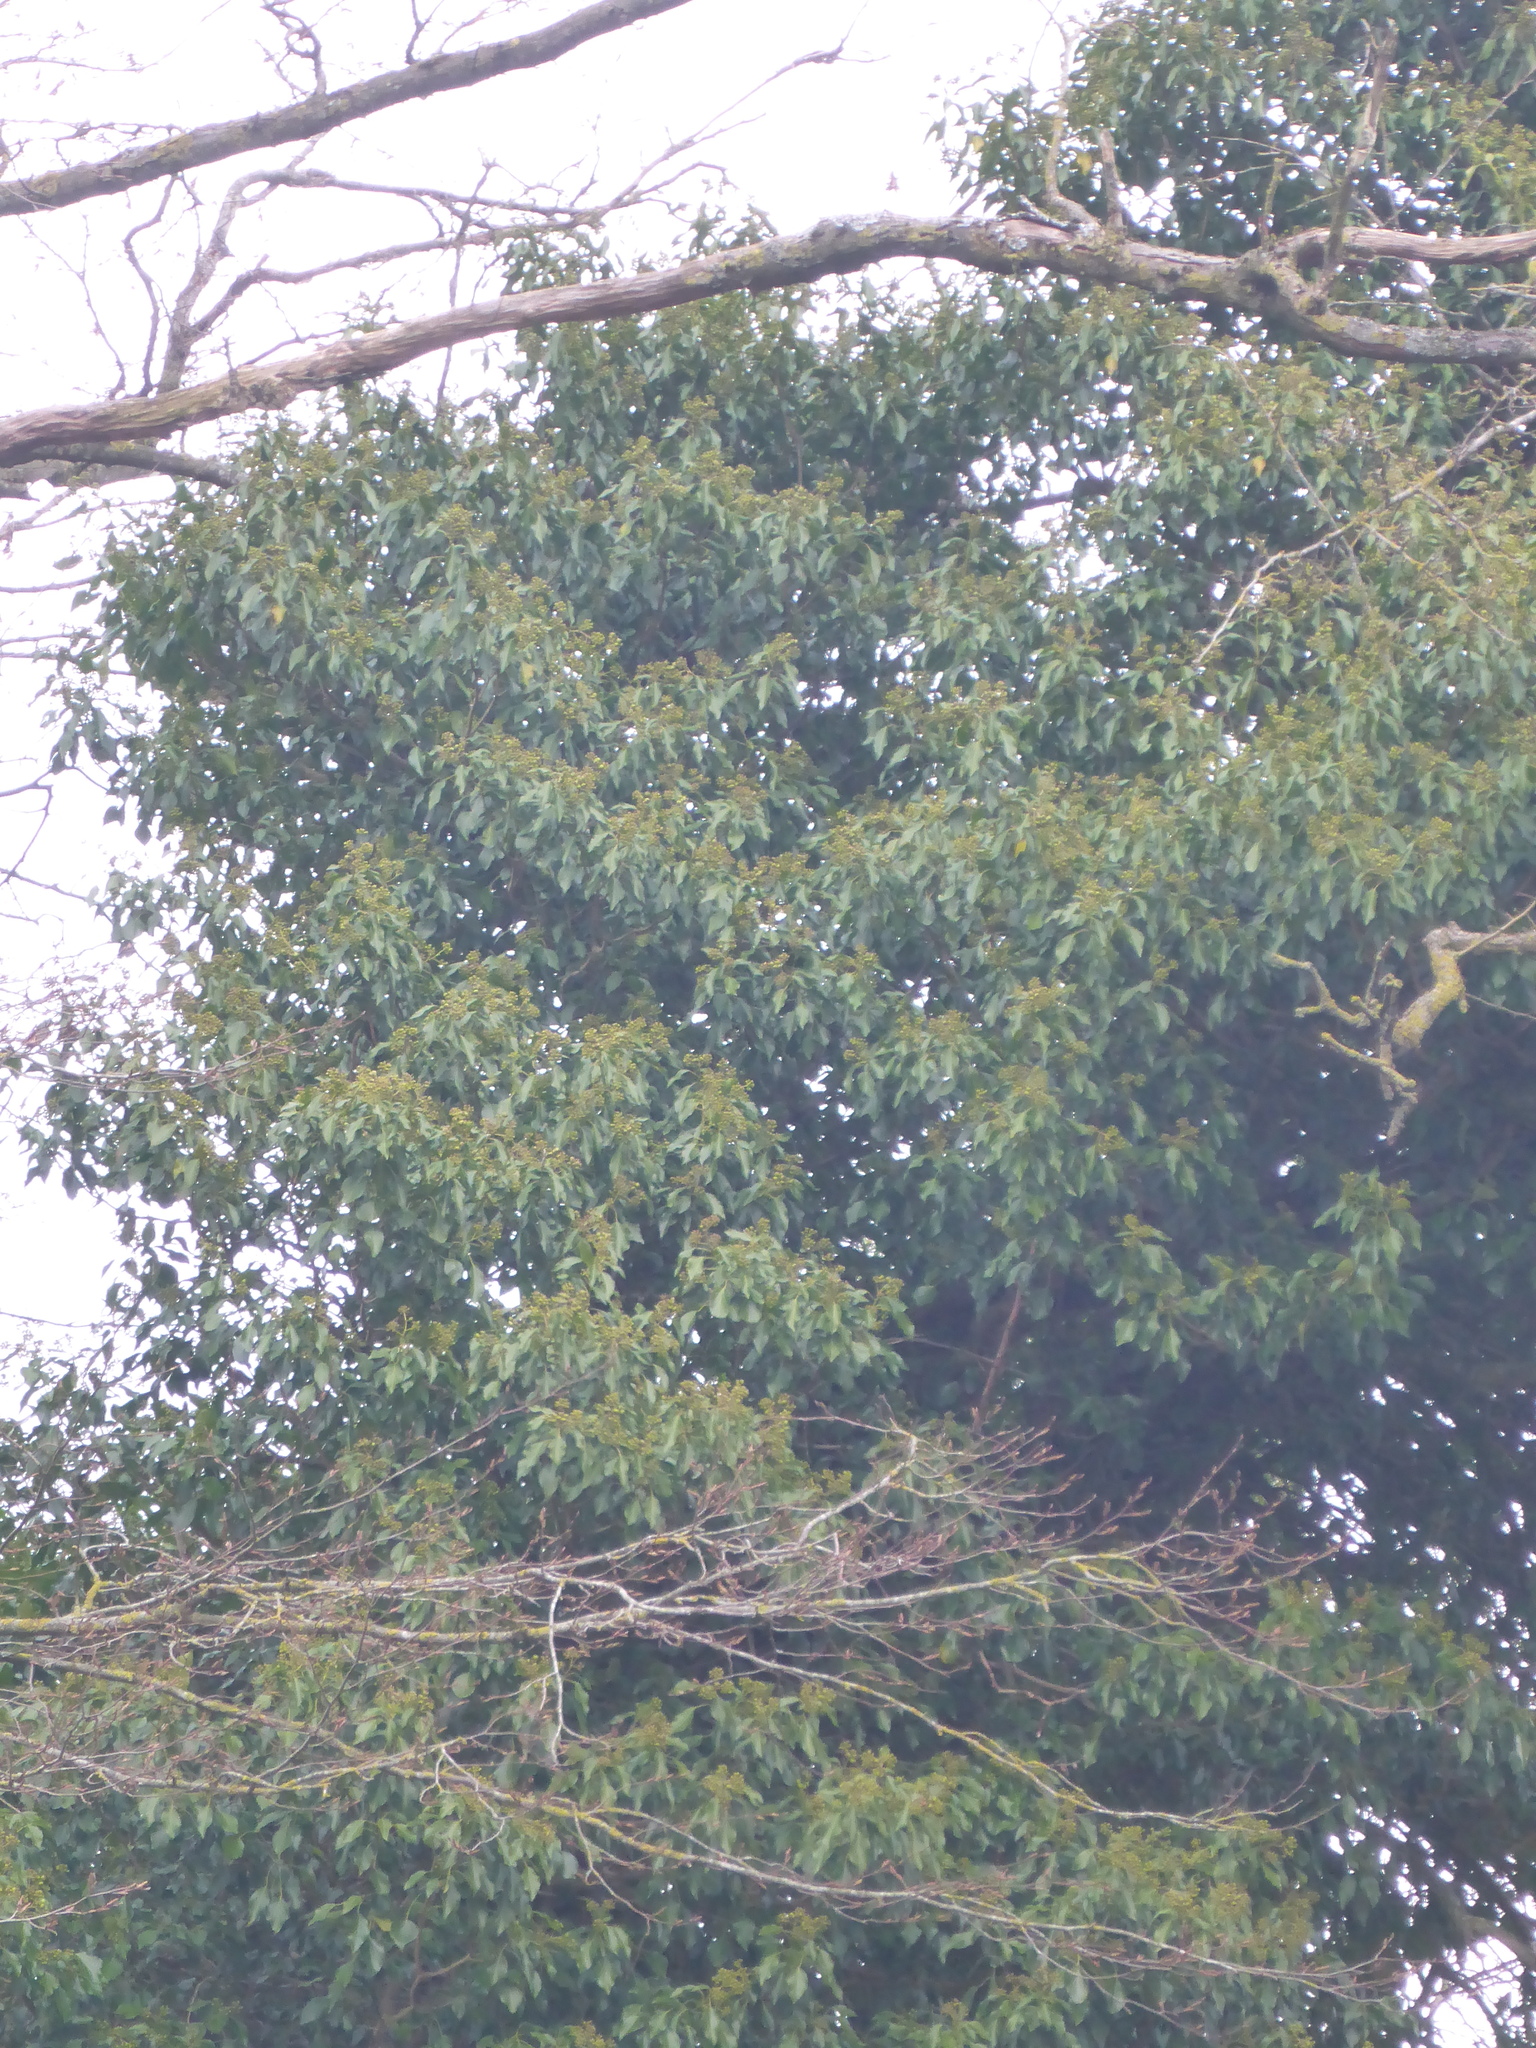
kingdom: Plantae
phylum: Tracheophyta
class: Magnoliopsida
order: Apiales
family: Araliaceae
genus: Hedera
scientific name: Hedera helix
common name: Ivy
